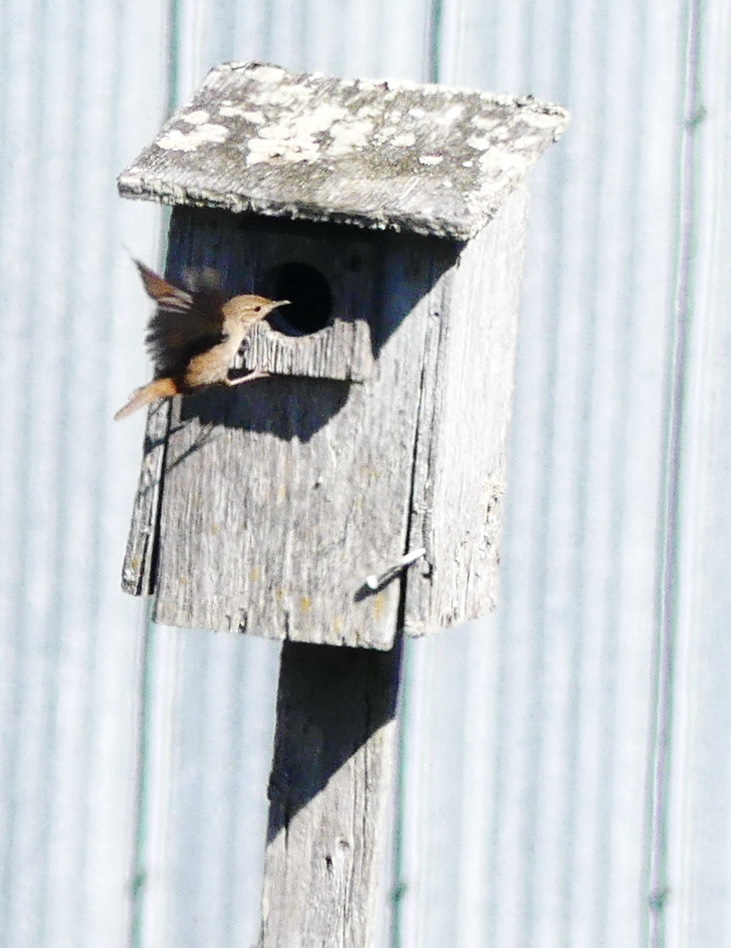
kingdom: Animalia
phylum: Chordata
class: Aves
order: Passeriformes
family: Troglodytidae
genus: Troglodytes
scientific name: Troglodytes aedon
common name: House wren
